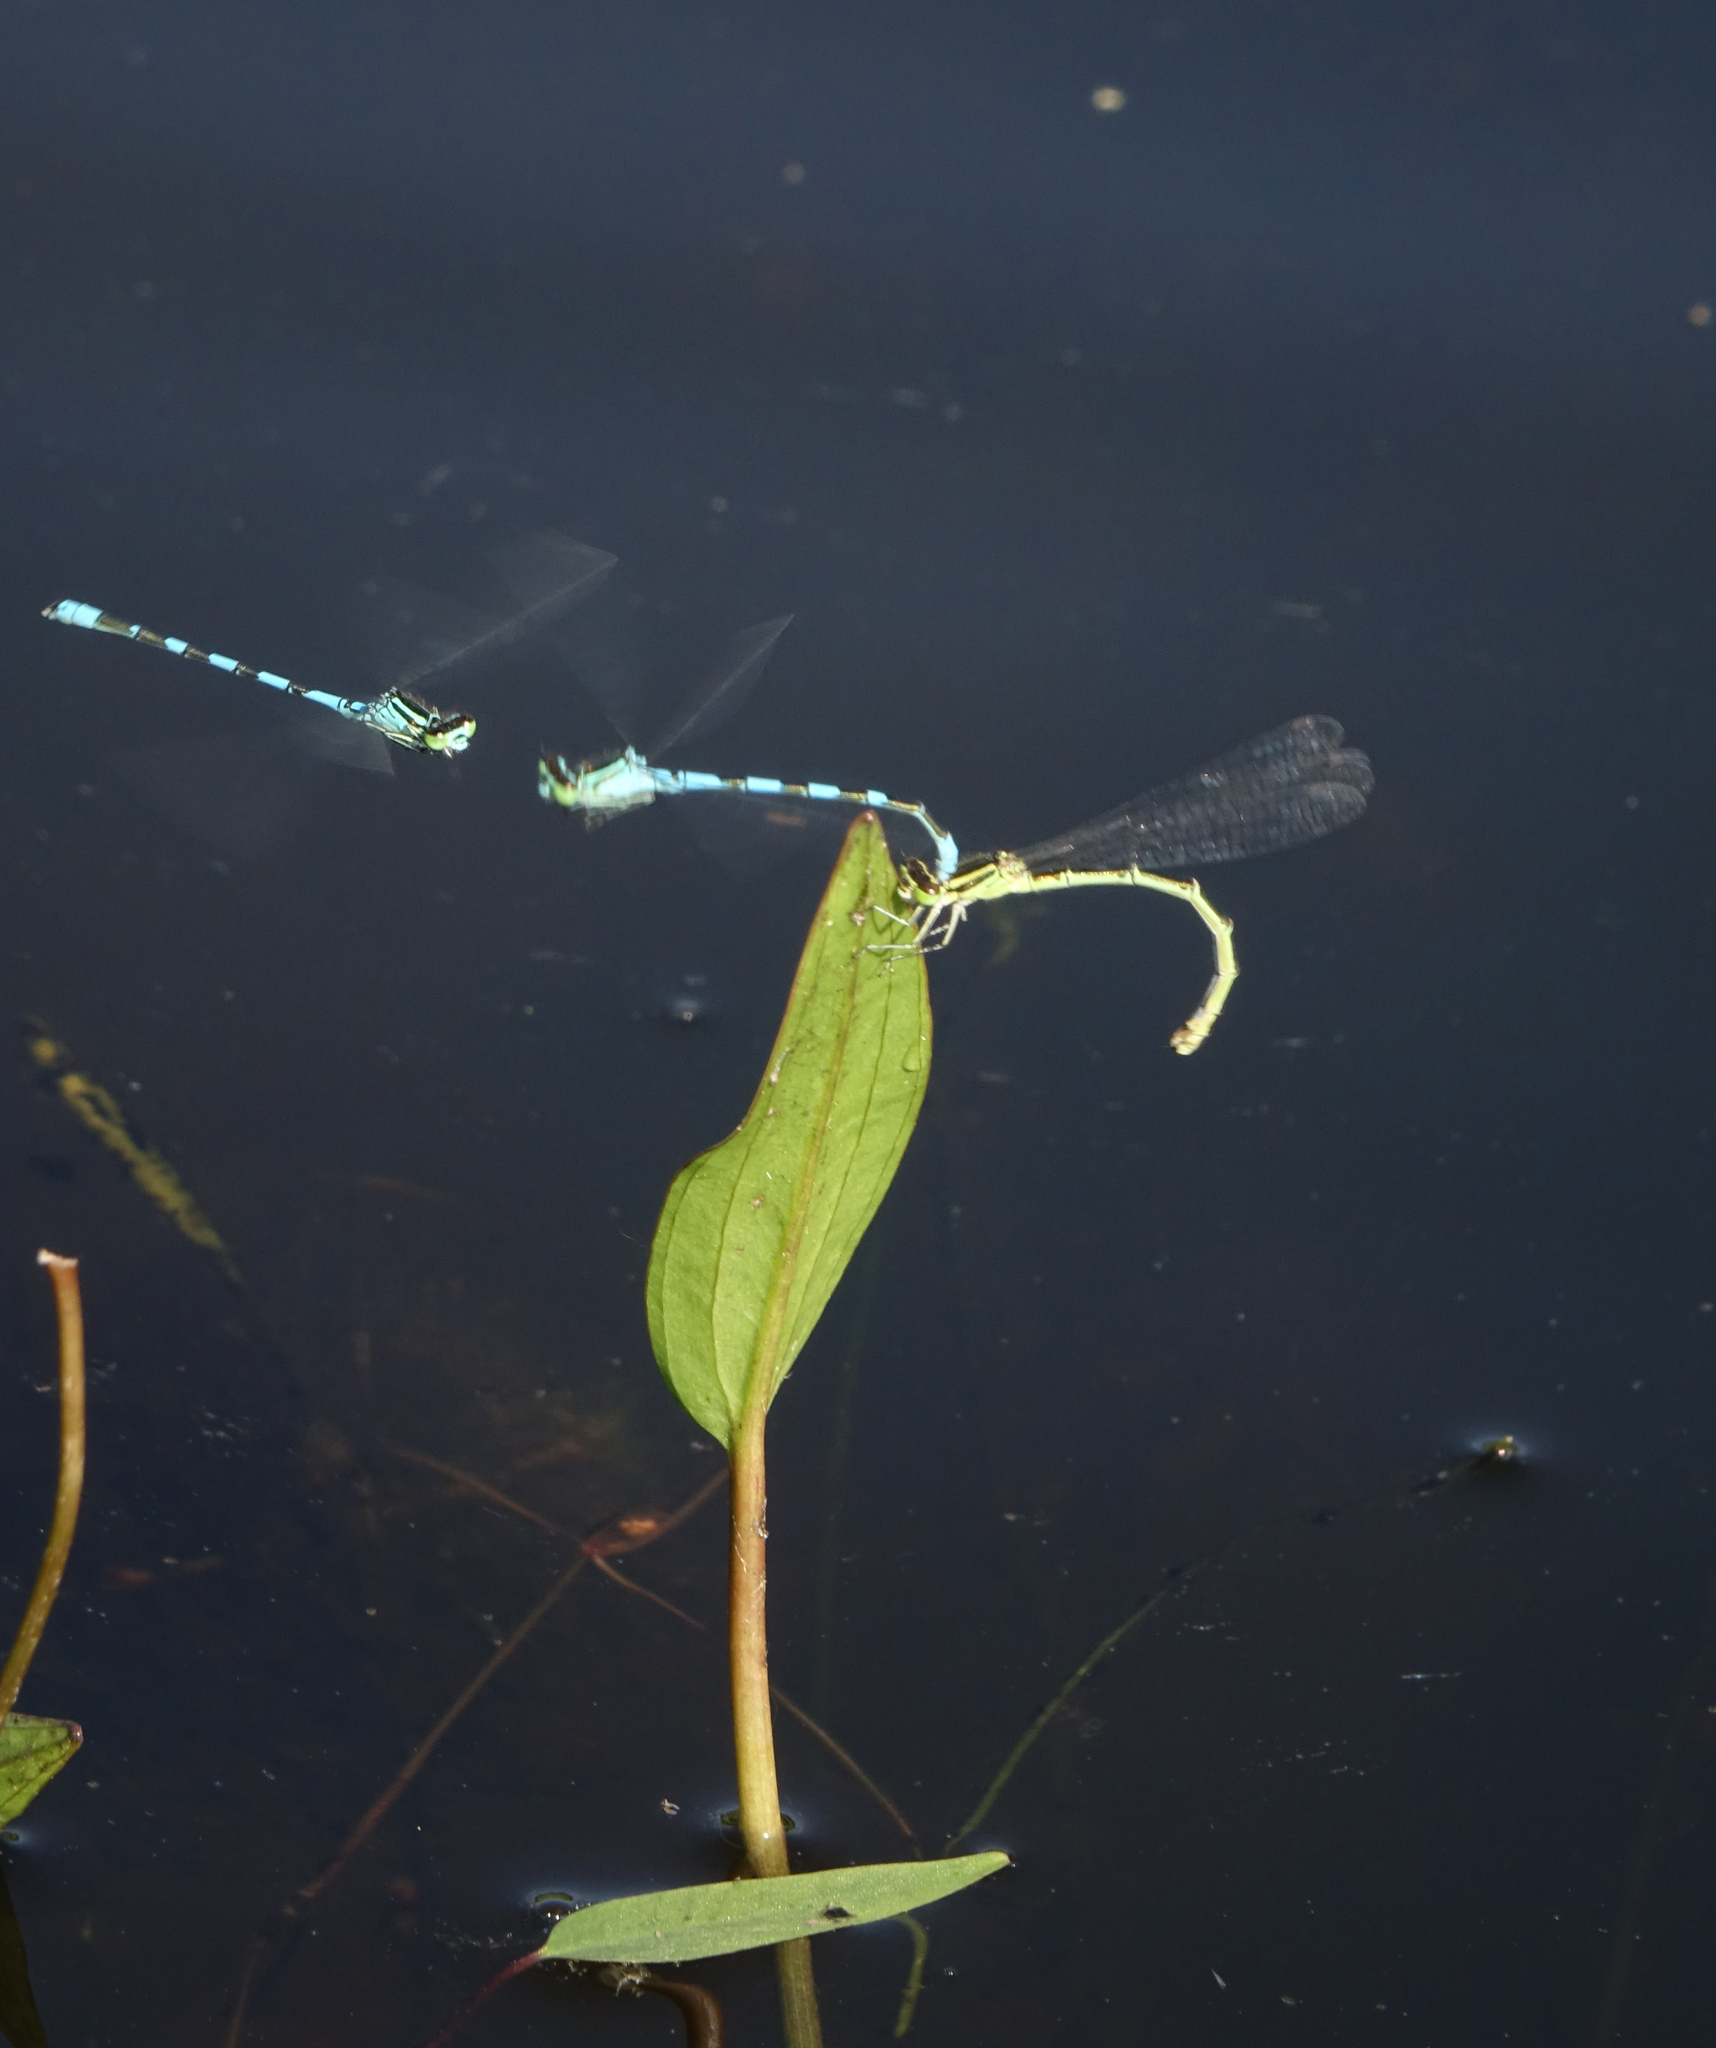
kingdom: Plantae
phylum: Tracheophyta
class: Liliopsida
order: Alismatales
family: Alismataceae
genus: Alisma
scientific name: Alisma gramineum
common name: Ribbon-leaved water-plantain
